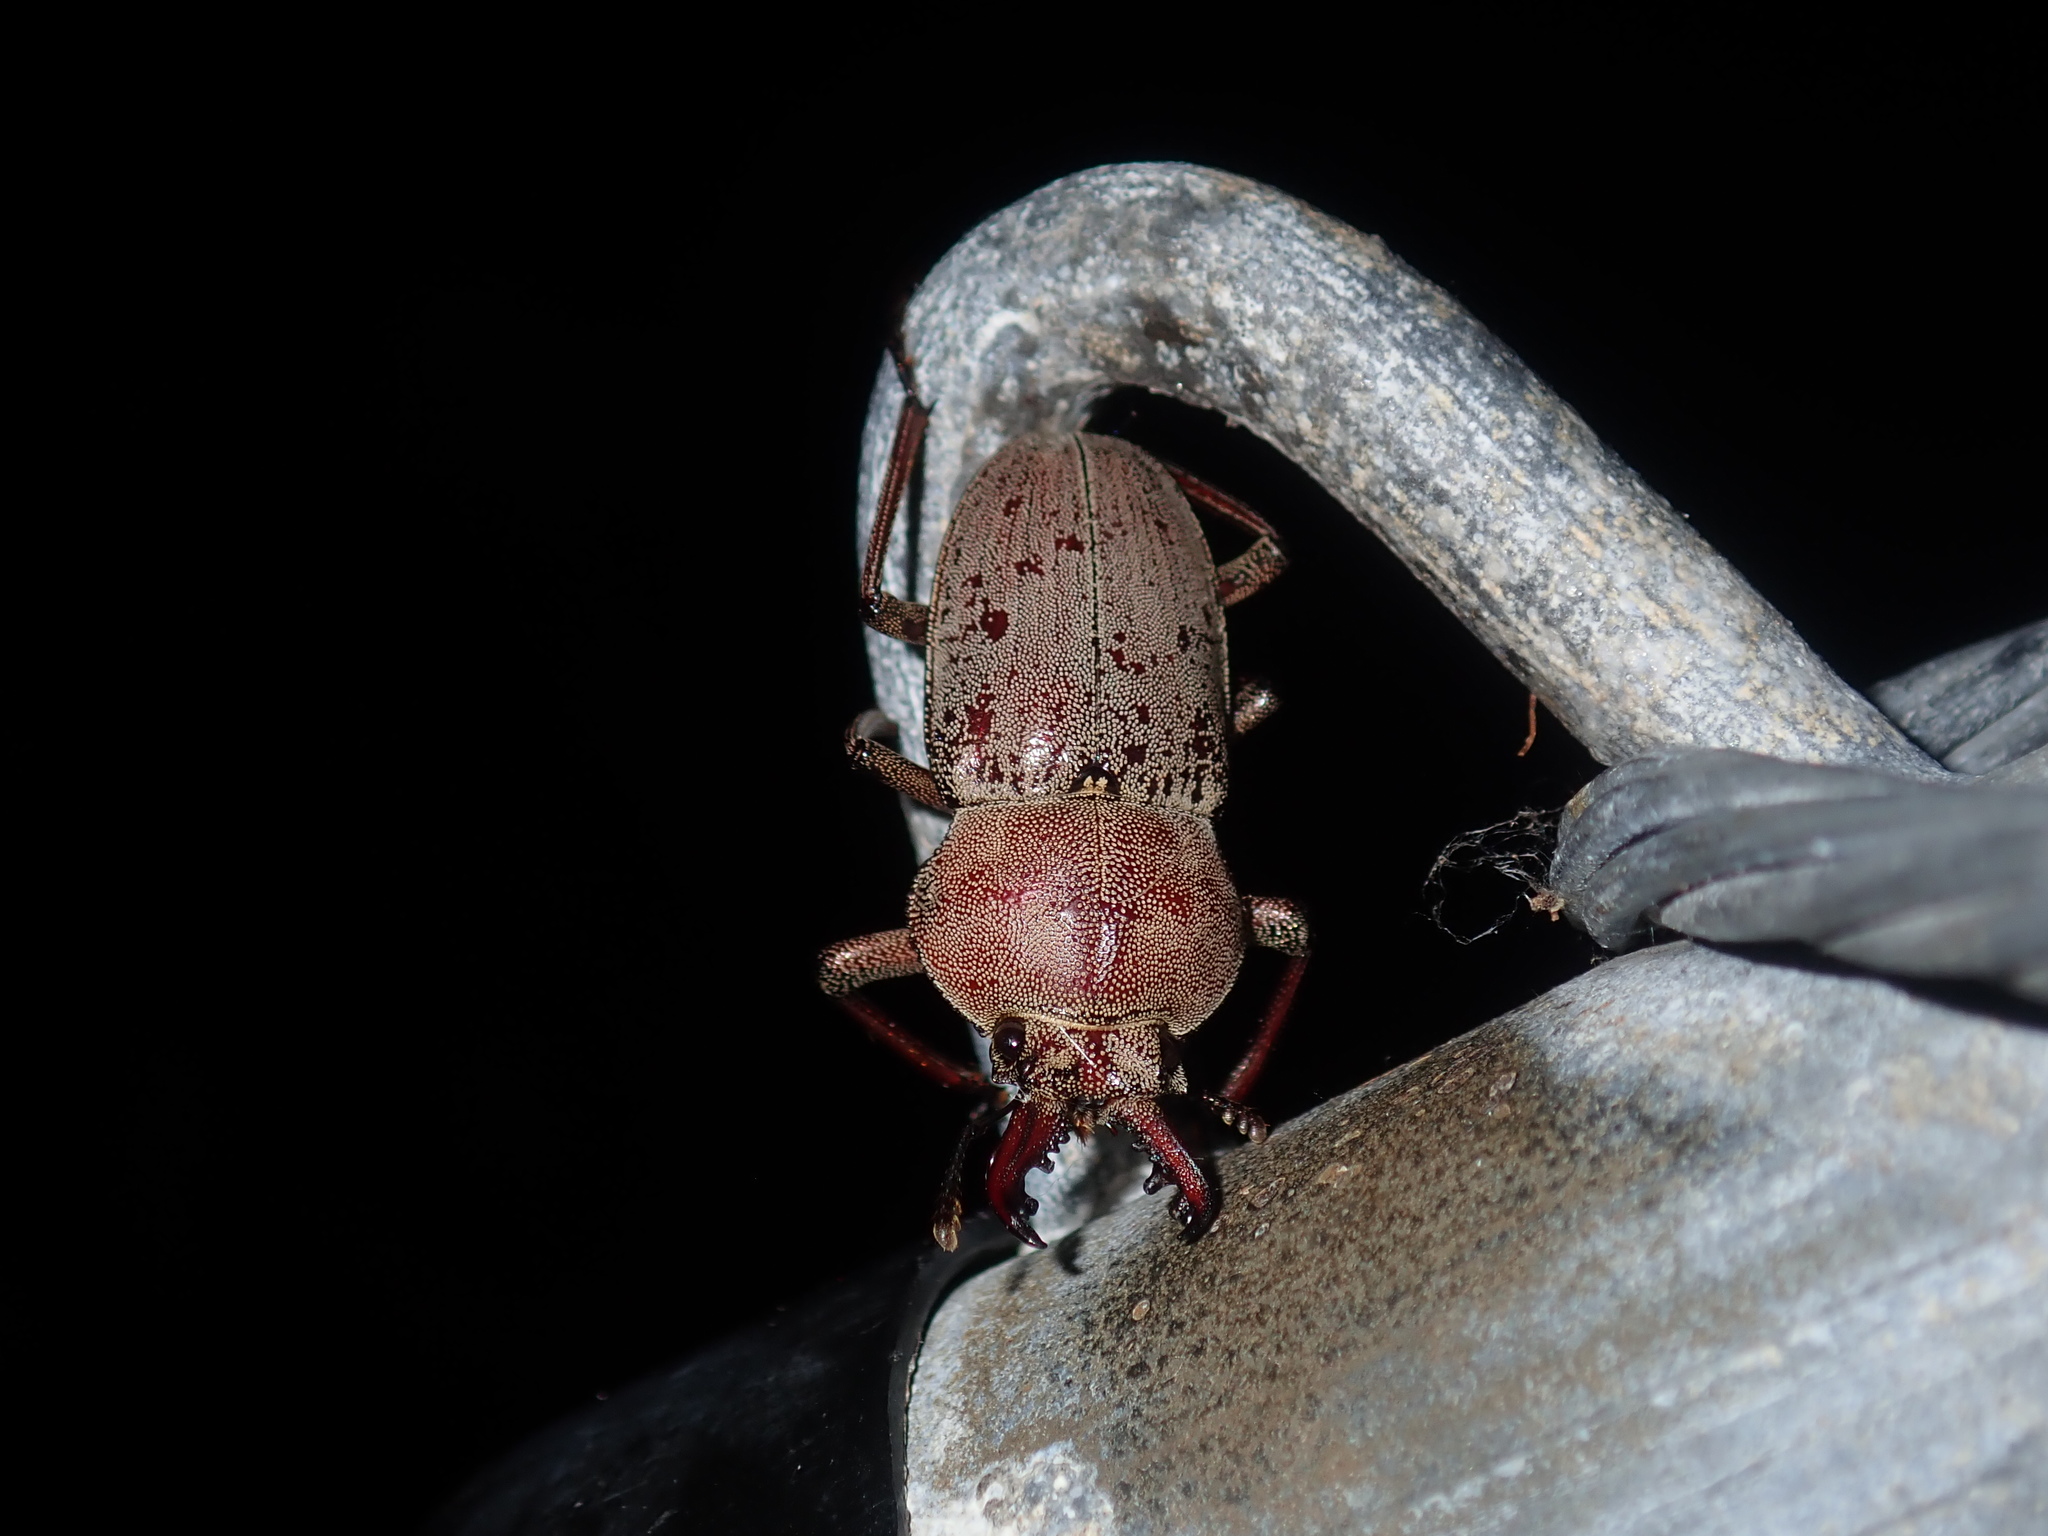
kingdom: Animalia
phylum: Arthropoda
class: Insecta
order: Coleoptera
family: Lucanidae
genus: Cacostomus
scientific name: Cacostomus squamosus
